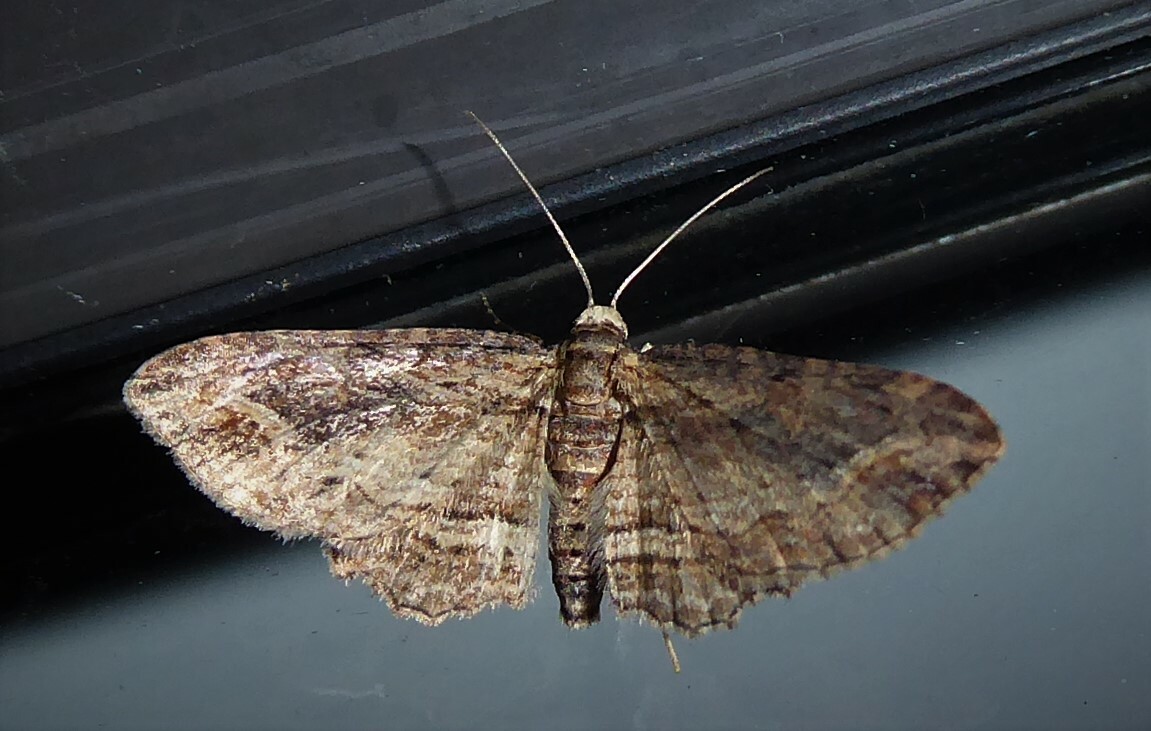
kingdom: Animalia
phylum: Arthropoda
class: Insecta
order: Lepidoptera
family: Geometridae
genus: Chloroclystis
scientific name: Chloroclystis filata
